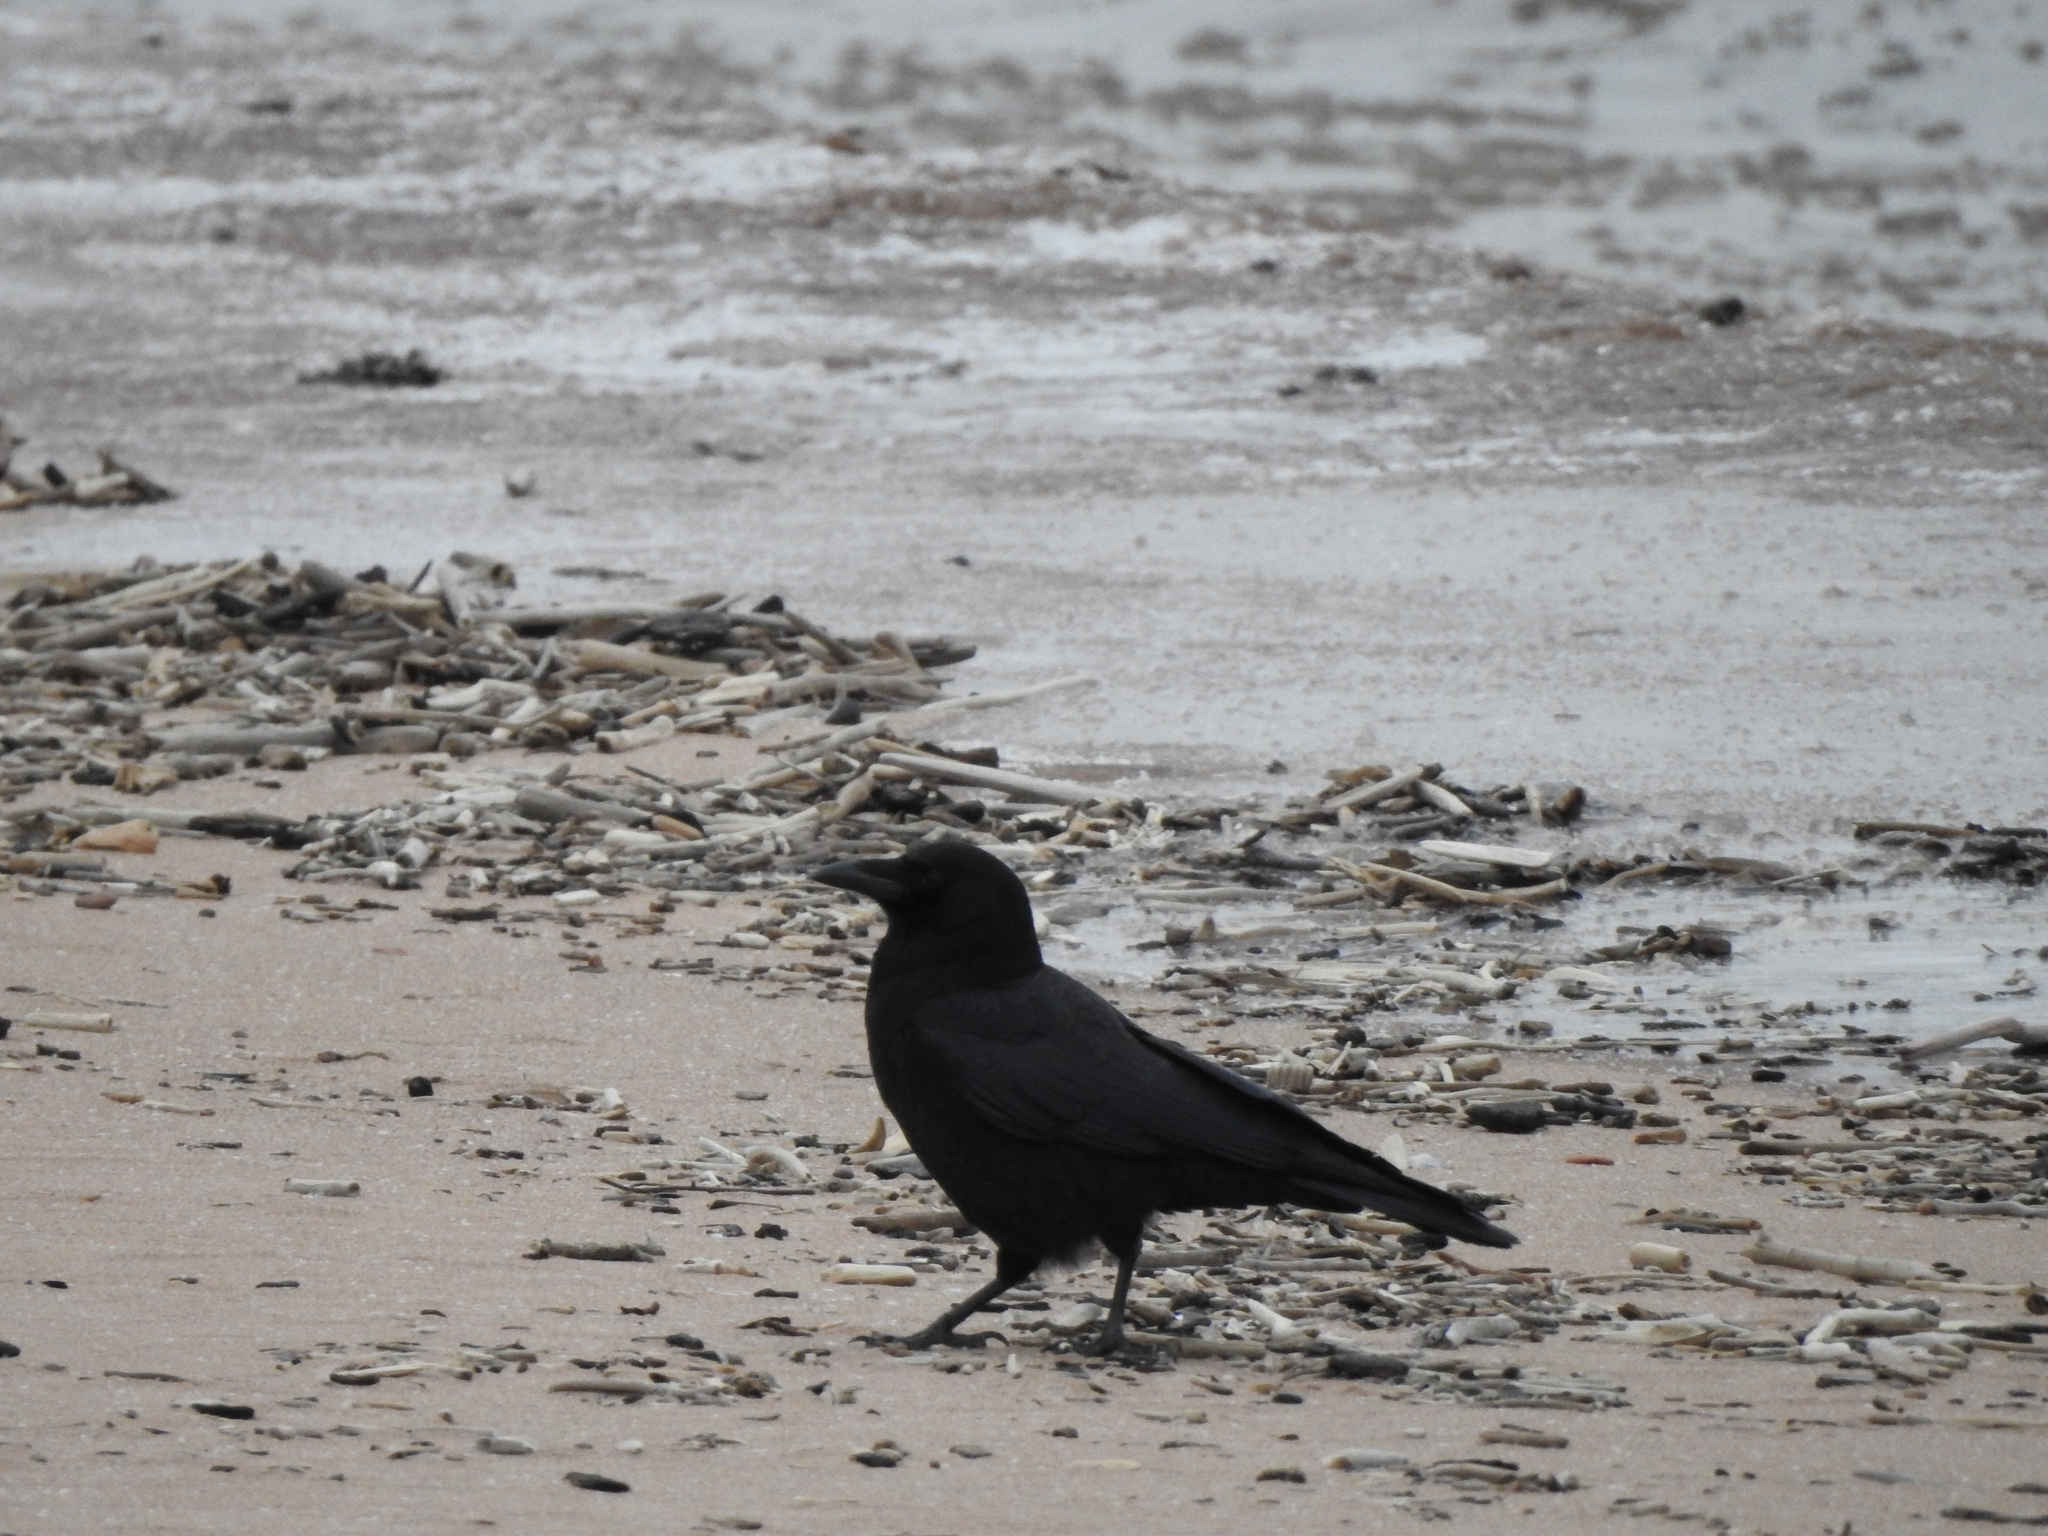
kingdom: Animalia
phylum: Chordata
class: Aves
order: Passeriformes
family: Corvidae
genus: Corvus
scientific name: Corvus corax
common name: Common raven
